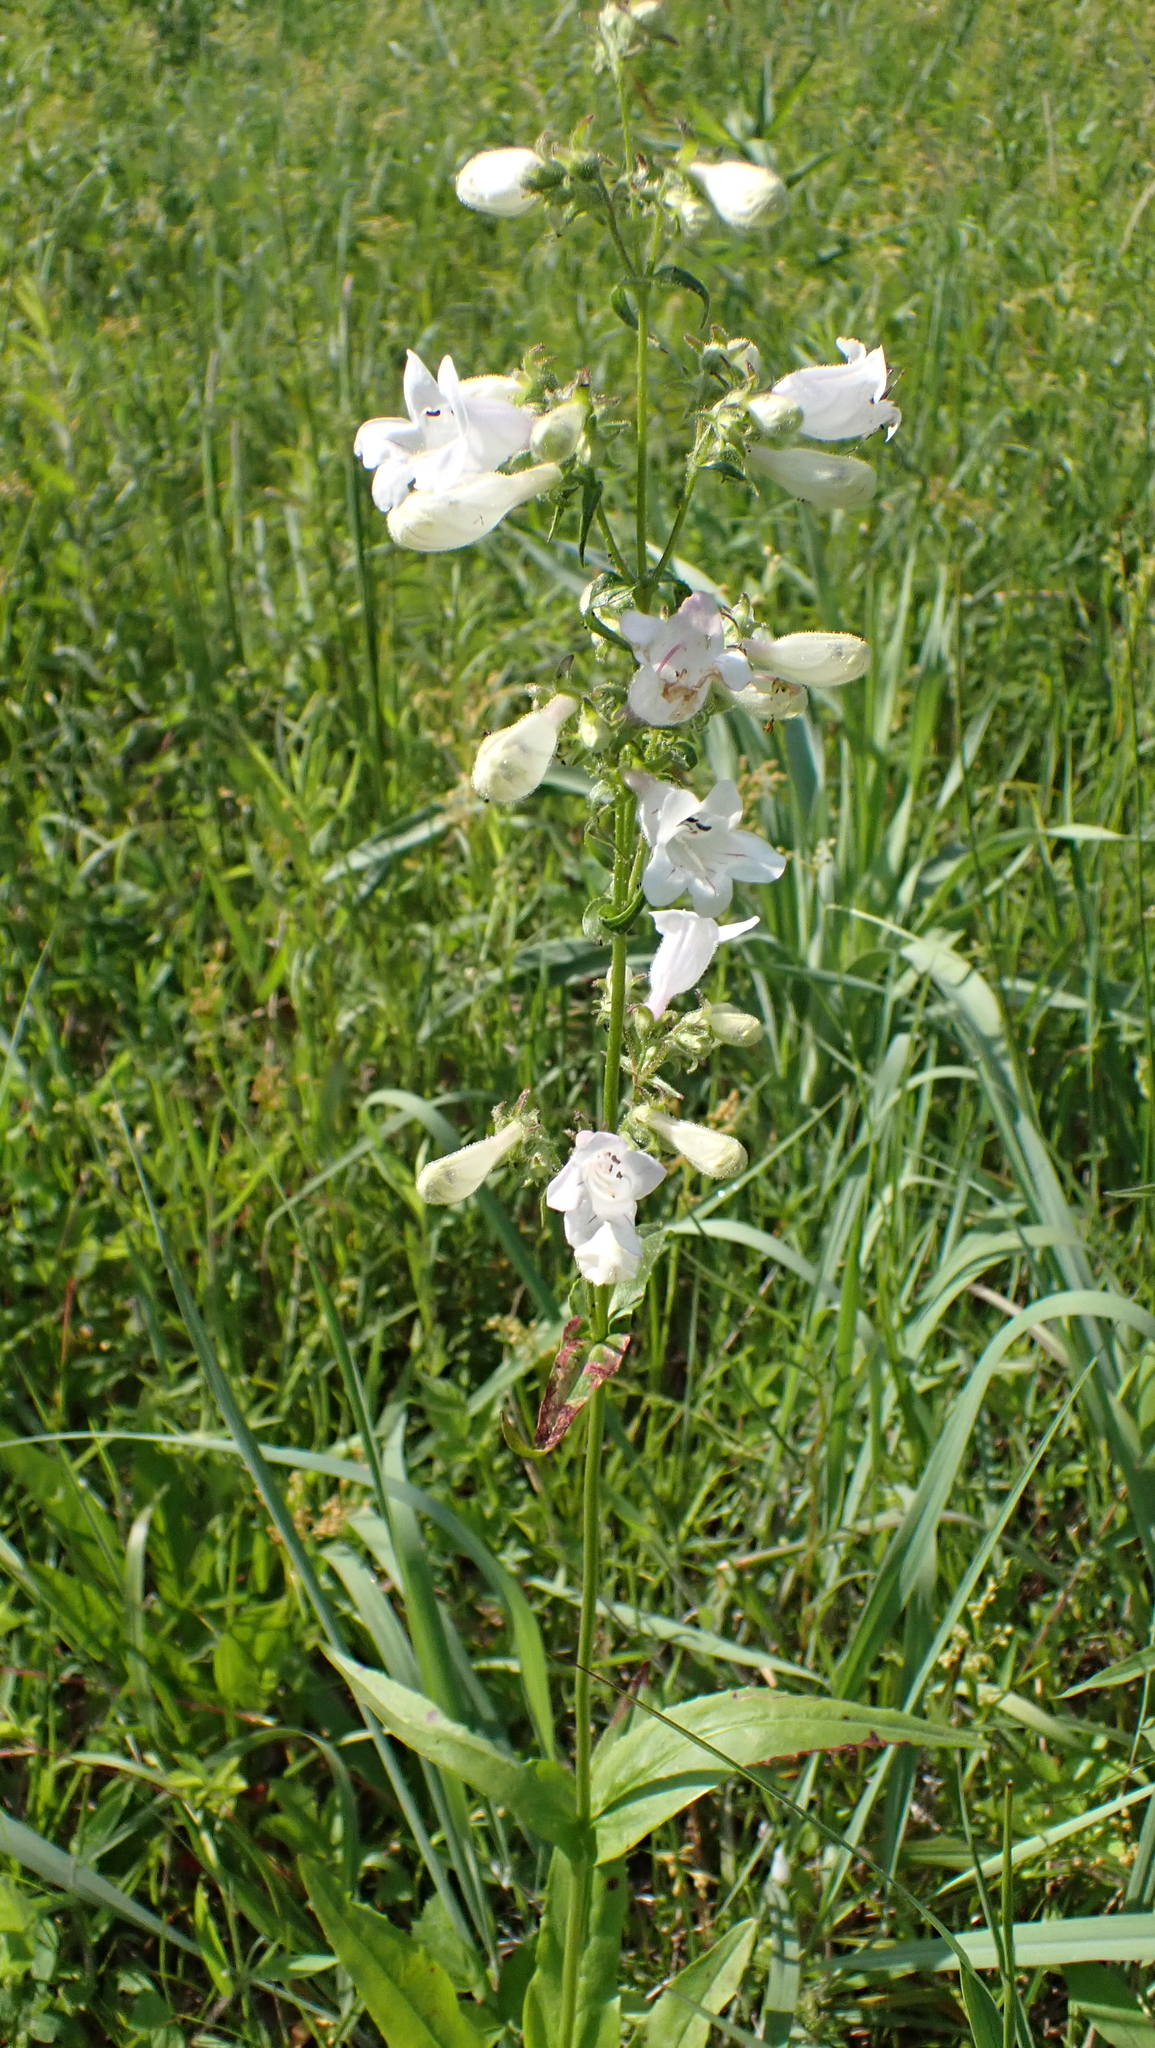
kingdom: Plantae
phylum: Tracheophyta
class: Magnoliopsida
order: Lamiales
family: Plantaginaceae
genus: Penstemon
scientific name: Penstemon digitalis
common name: Foxglove beardtongue
